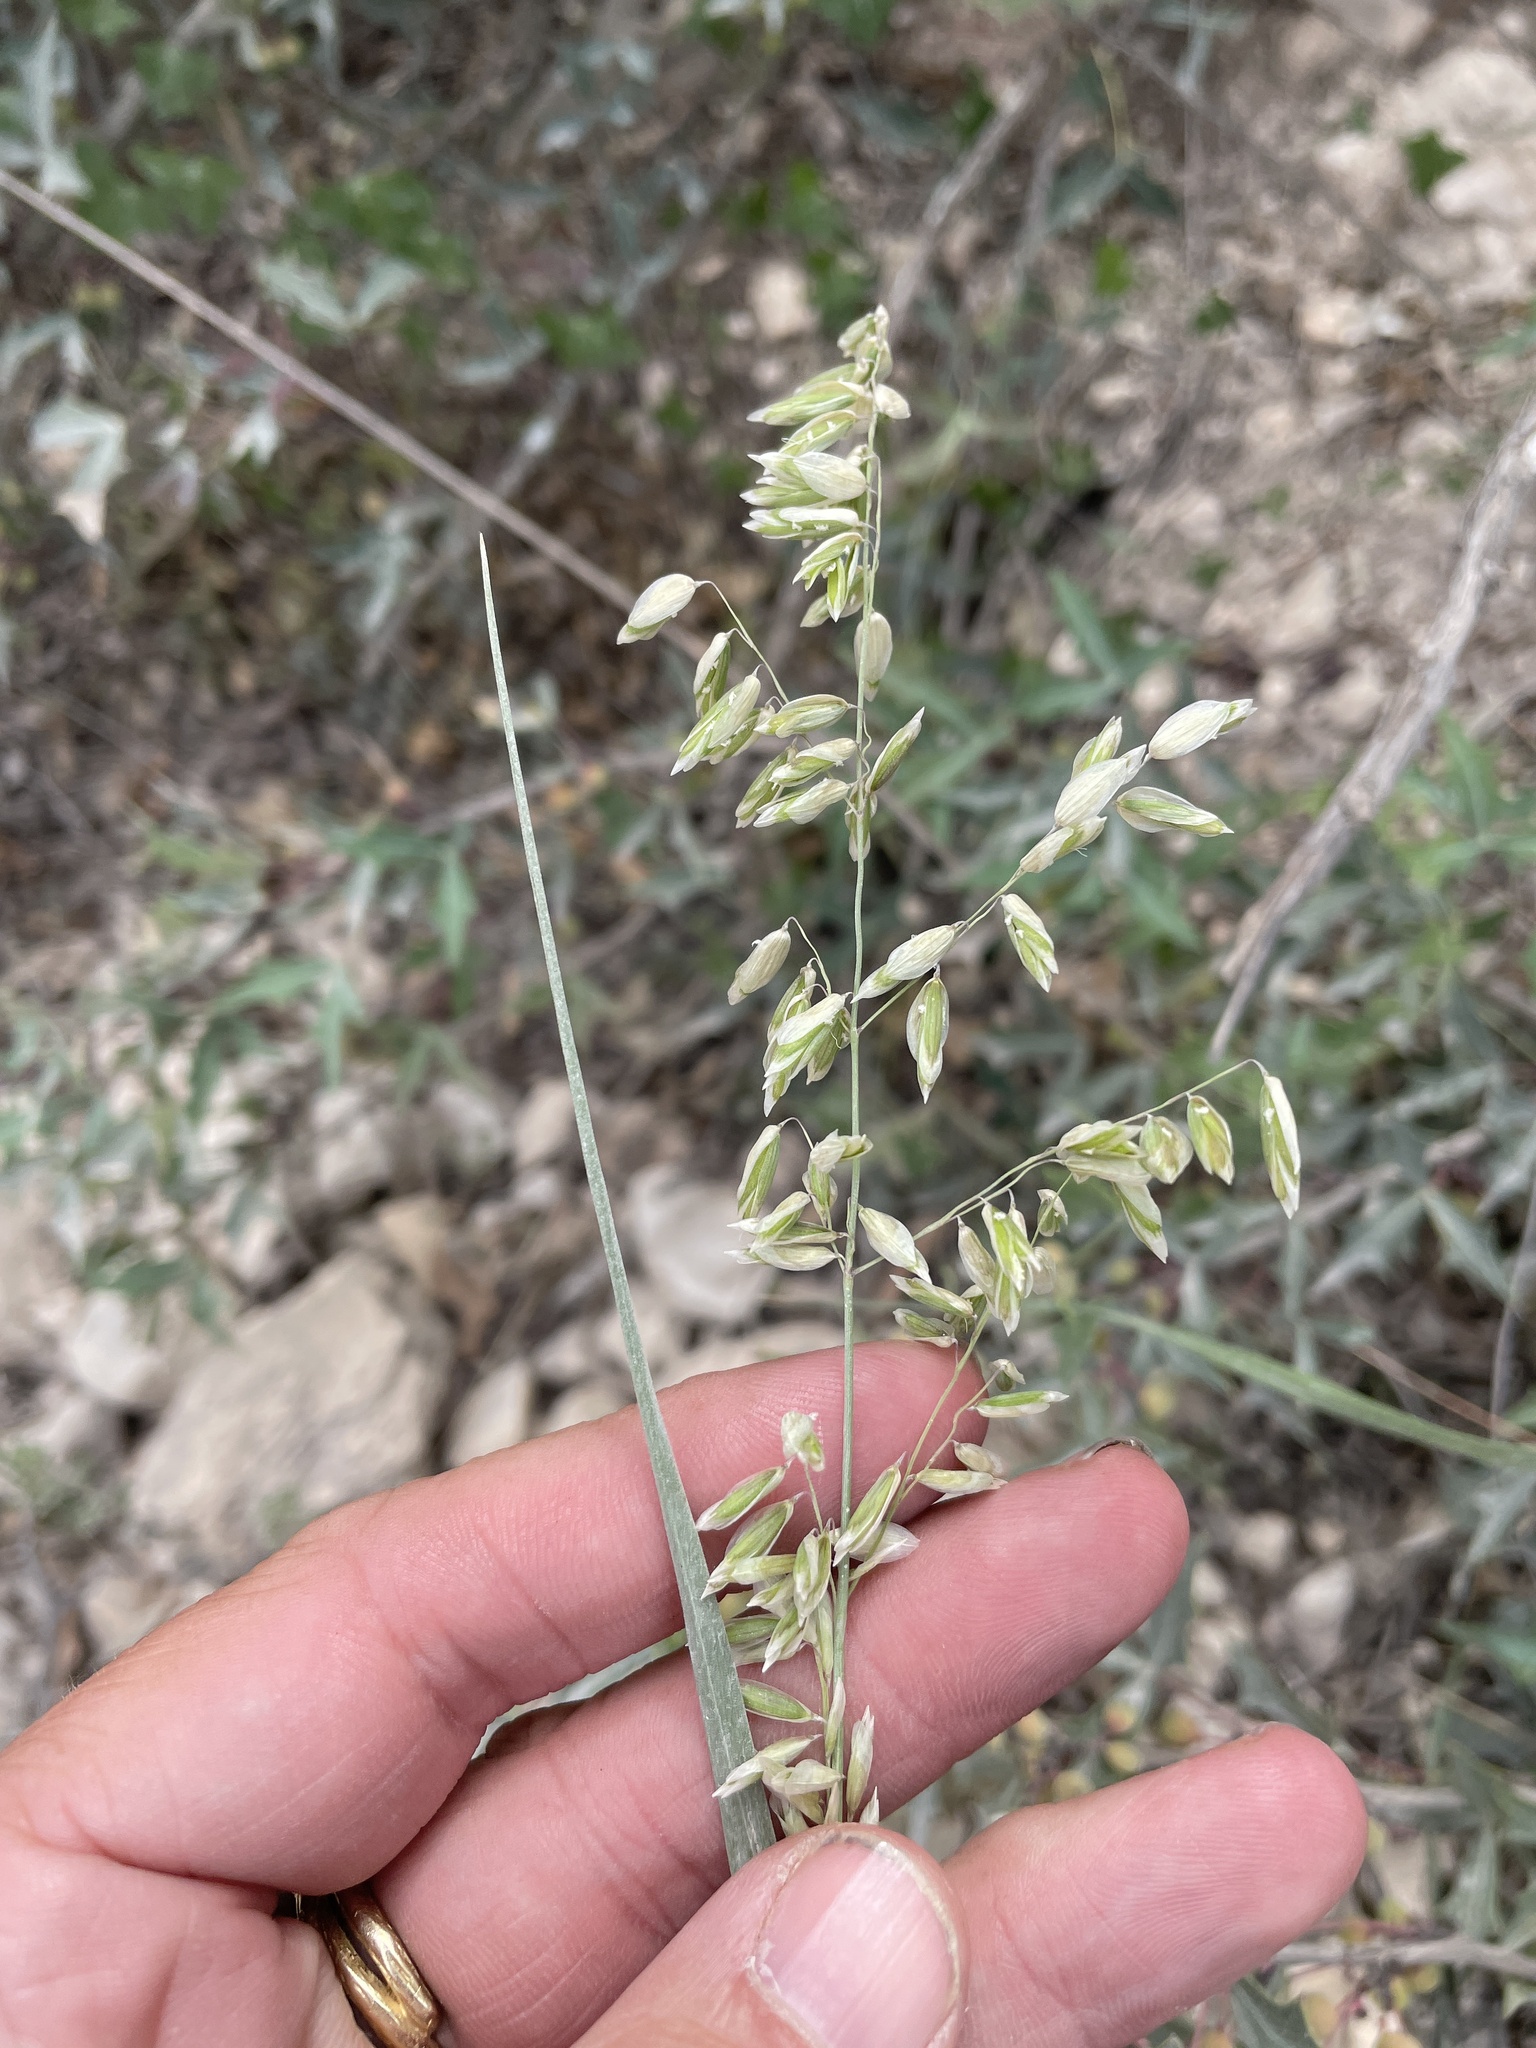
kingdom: Plantae
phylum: Tracheophyta
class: Liliopsida
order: Poales
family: Poaceae
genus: Melica
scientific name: Melica nitens
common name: Three-flower melic
